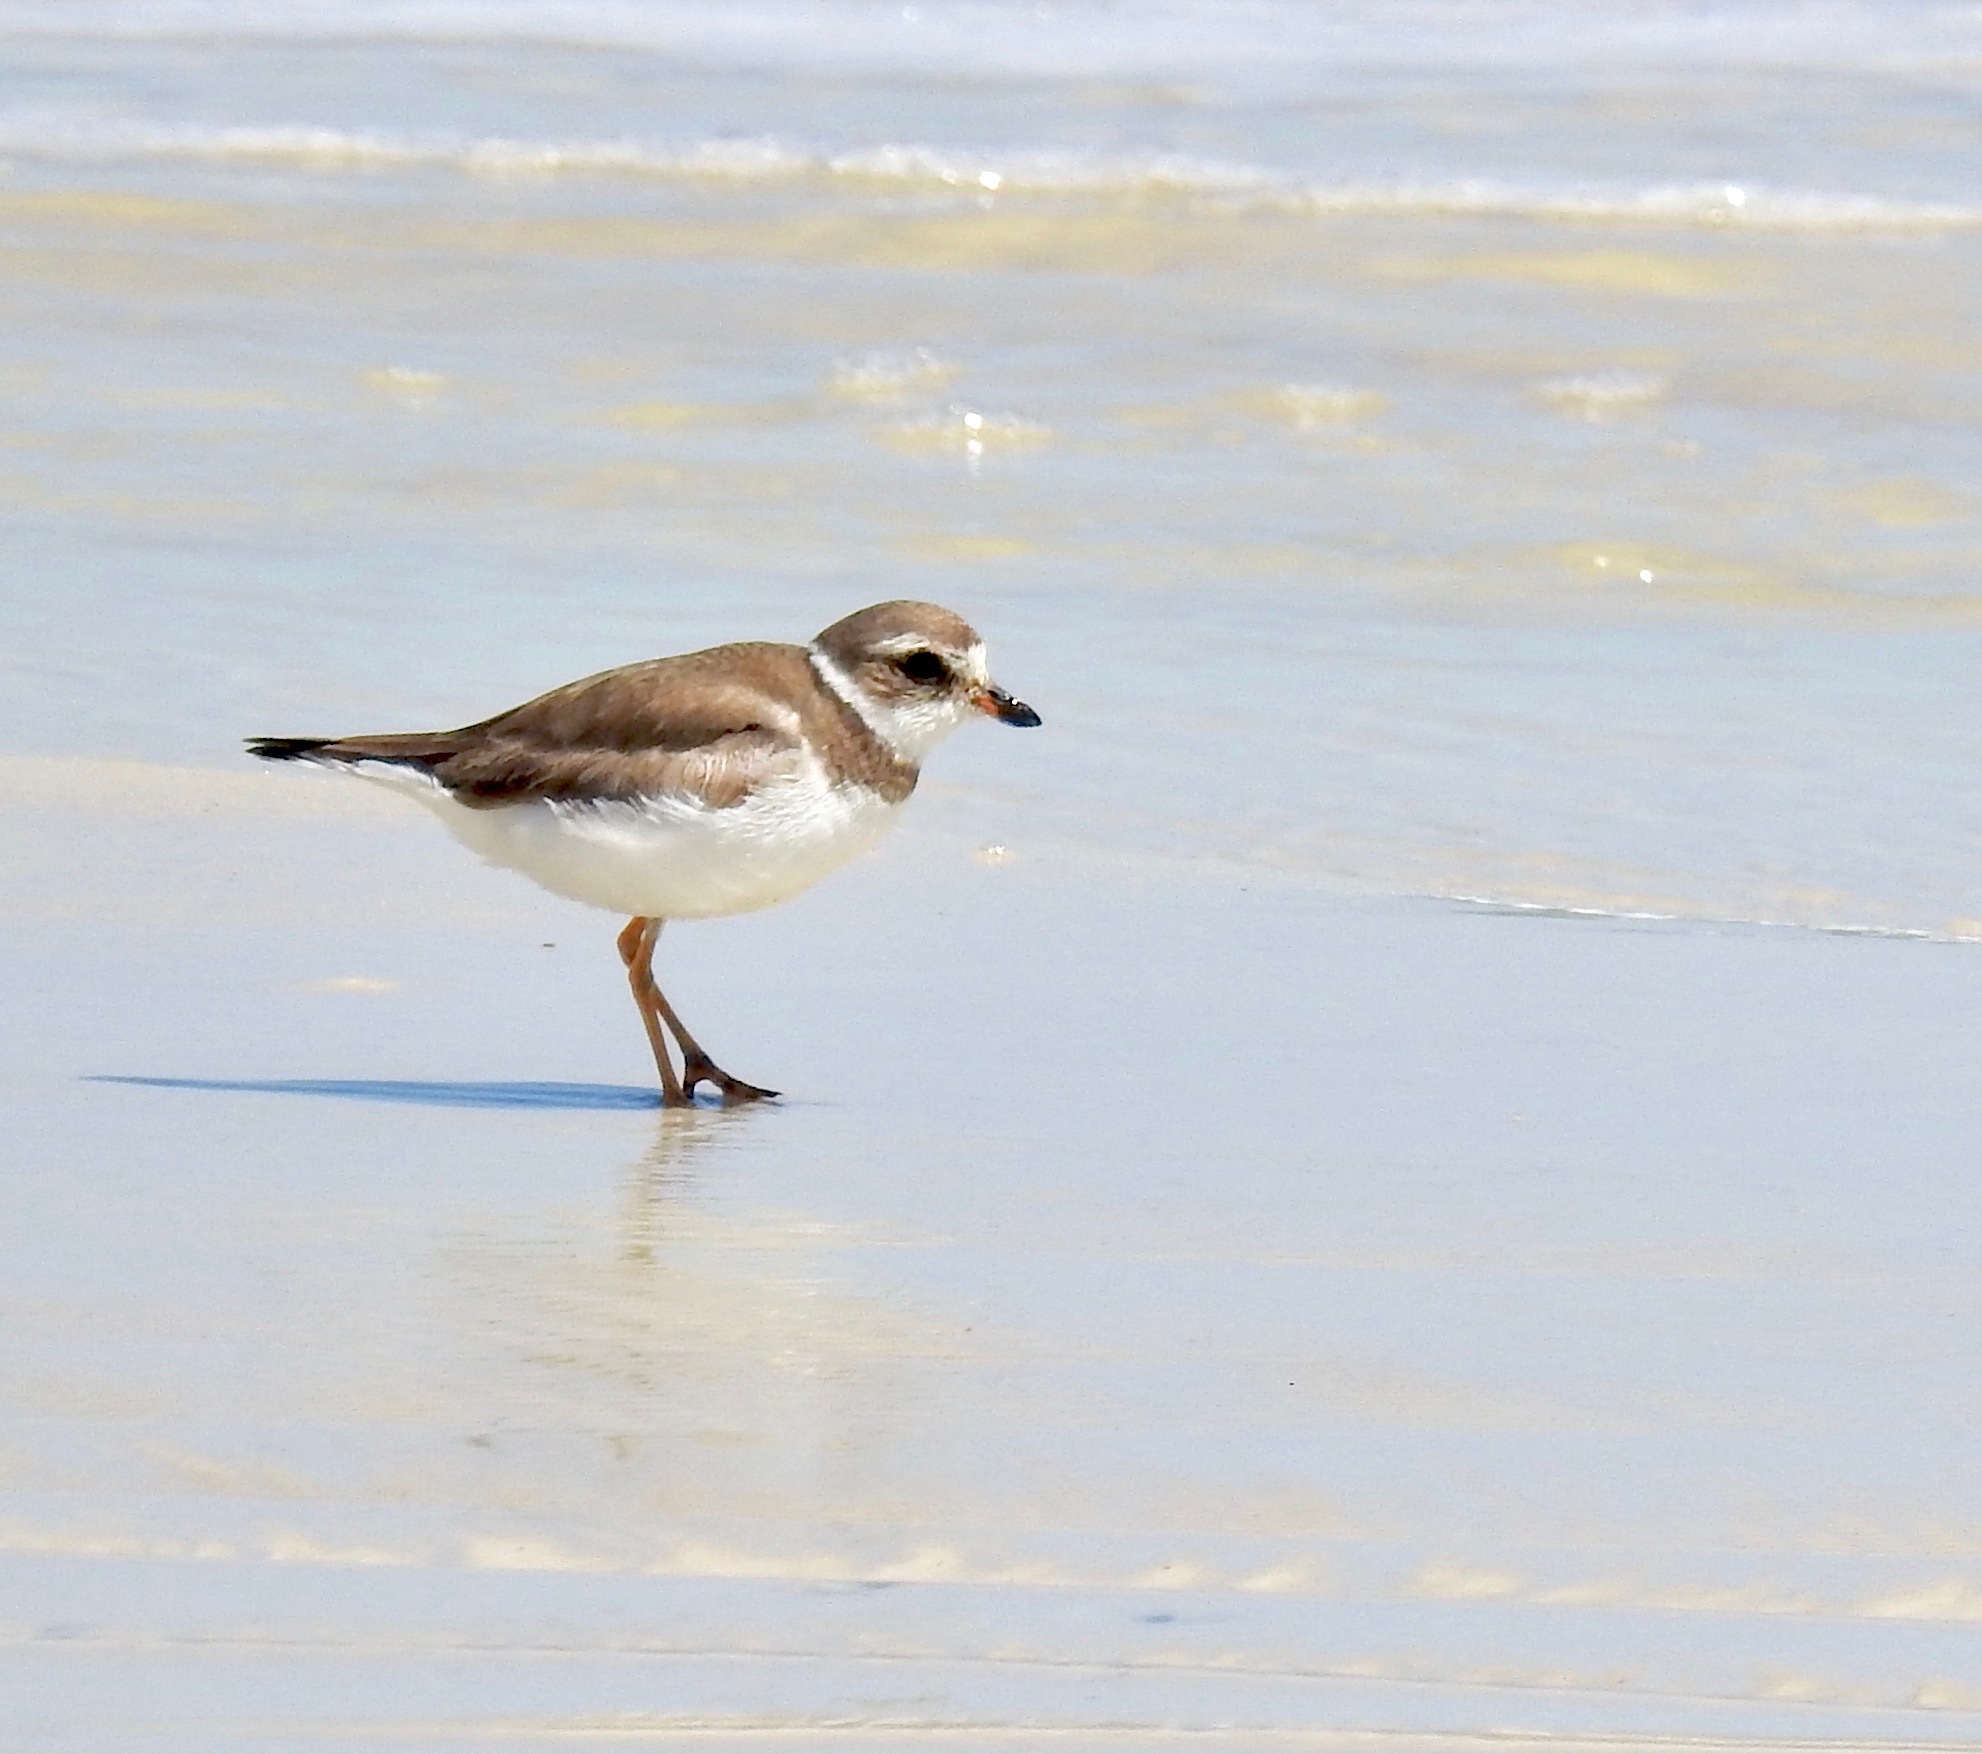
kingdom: Animalia
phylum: Chordata
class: Aves
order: Charadriiformes
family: Charadriidae
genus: Charadrius
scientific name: Charadrius semipalmatus
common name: Semipalmated plover
